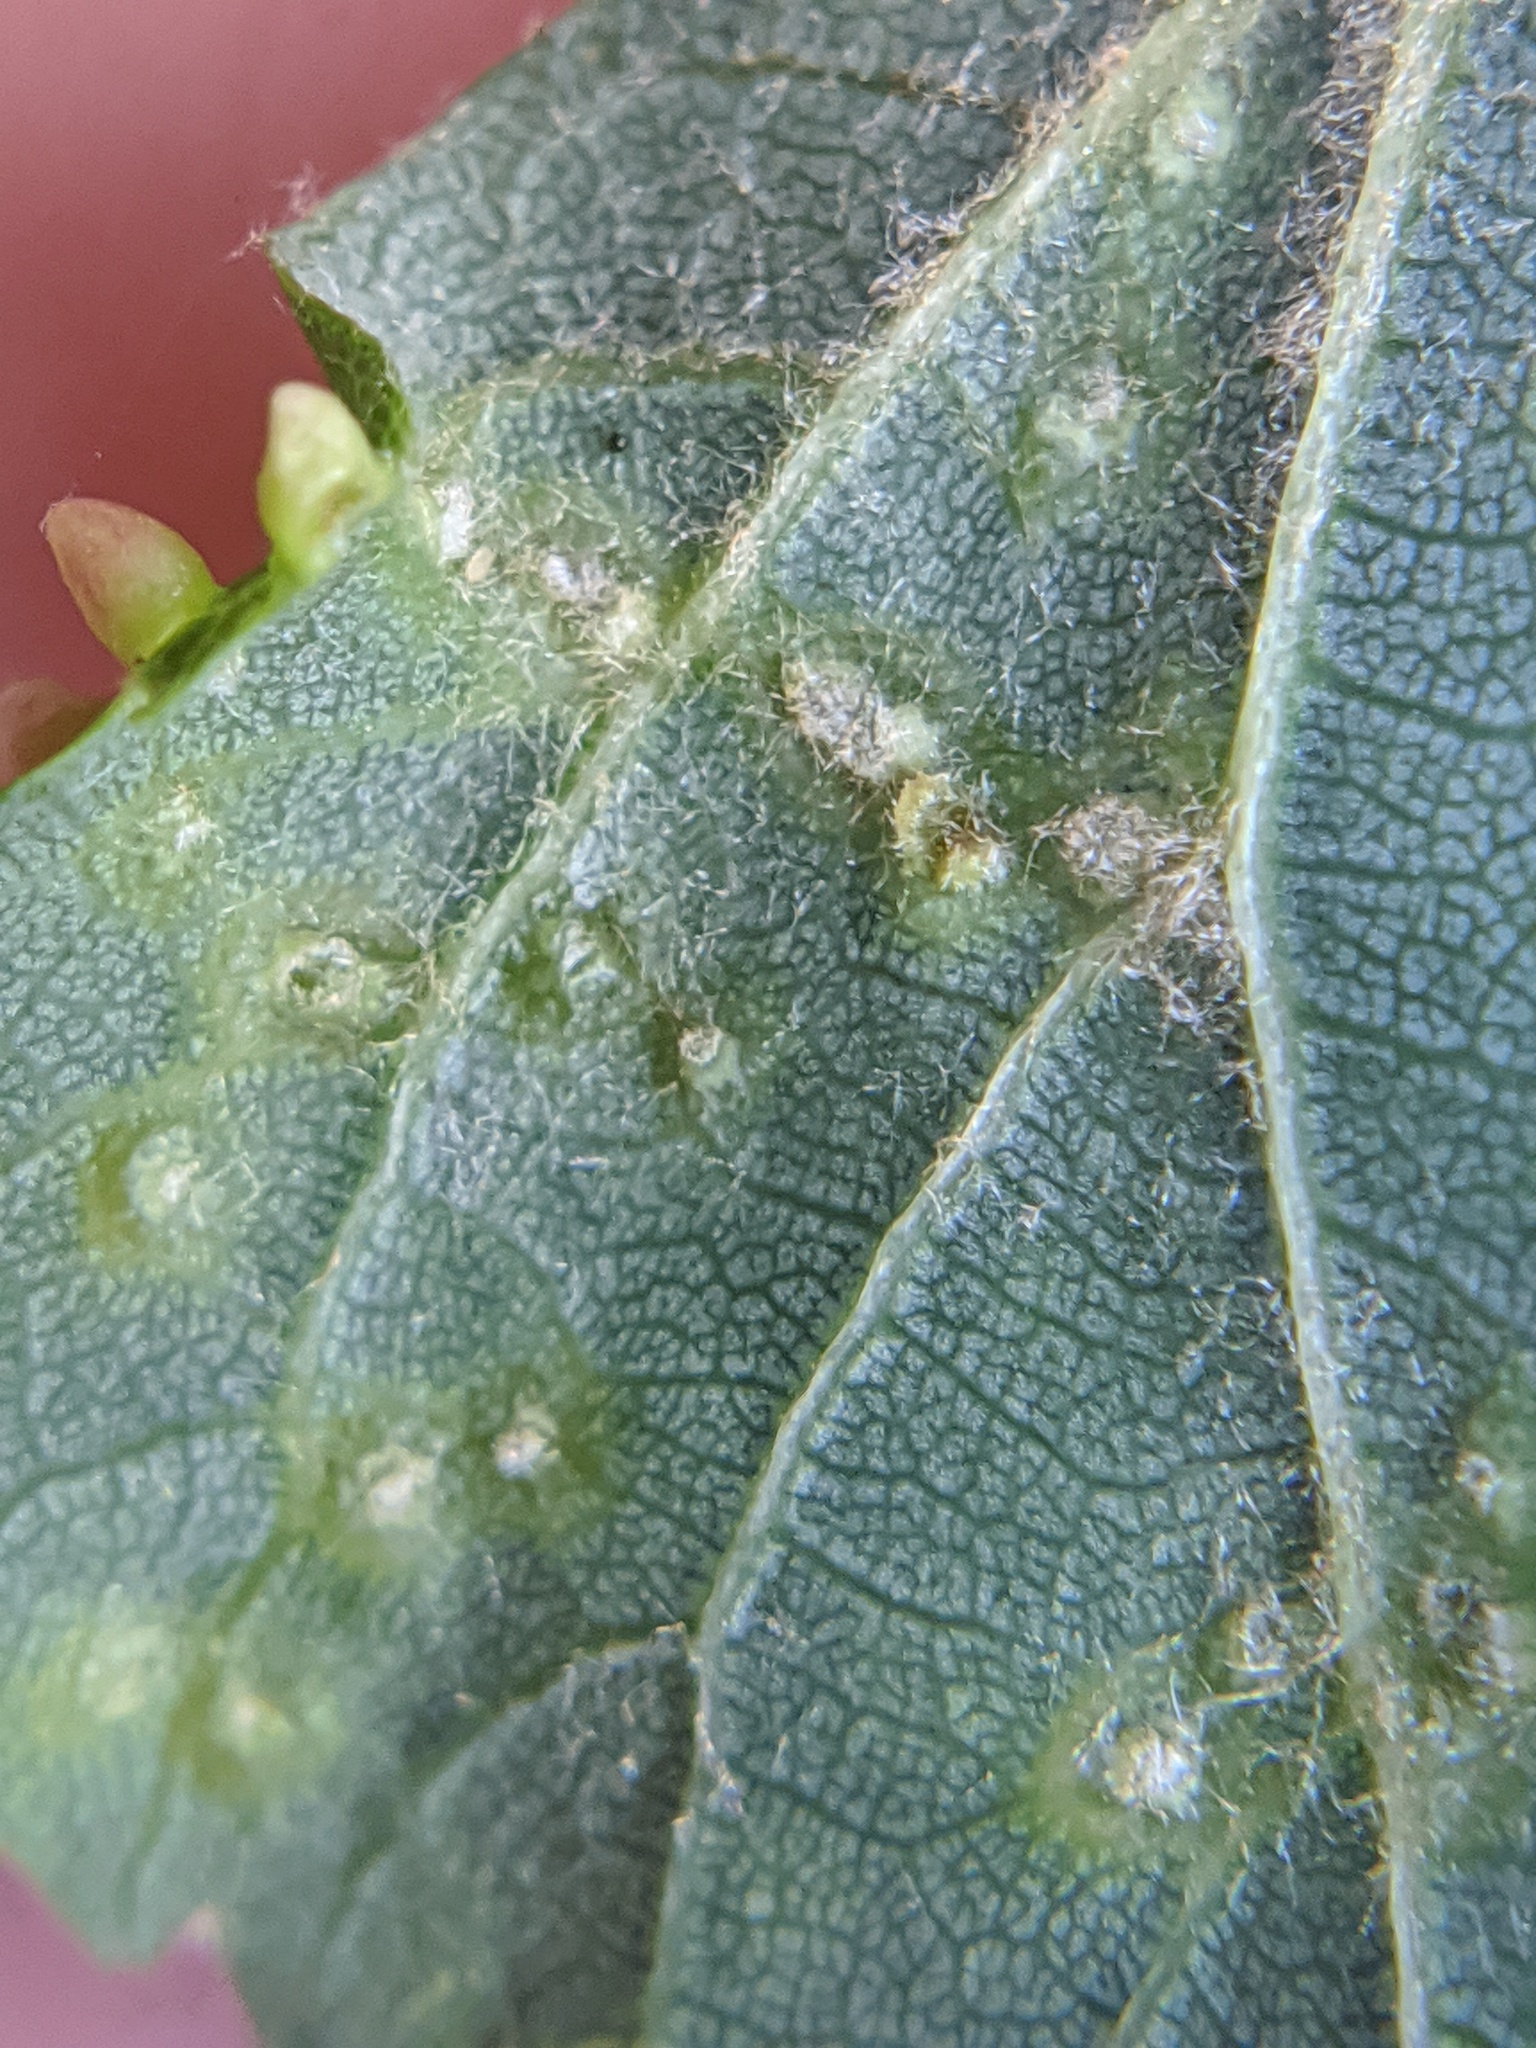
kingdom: Animalia
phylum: Arthropoda
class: Arachnida
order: Trombidiformes
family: Eriophyidae
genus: Eriophyes
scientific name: Eriophyes tiliae
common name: Red nail gall mite
